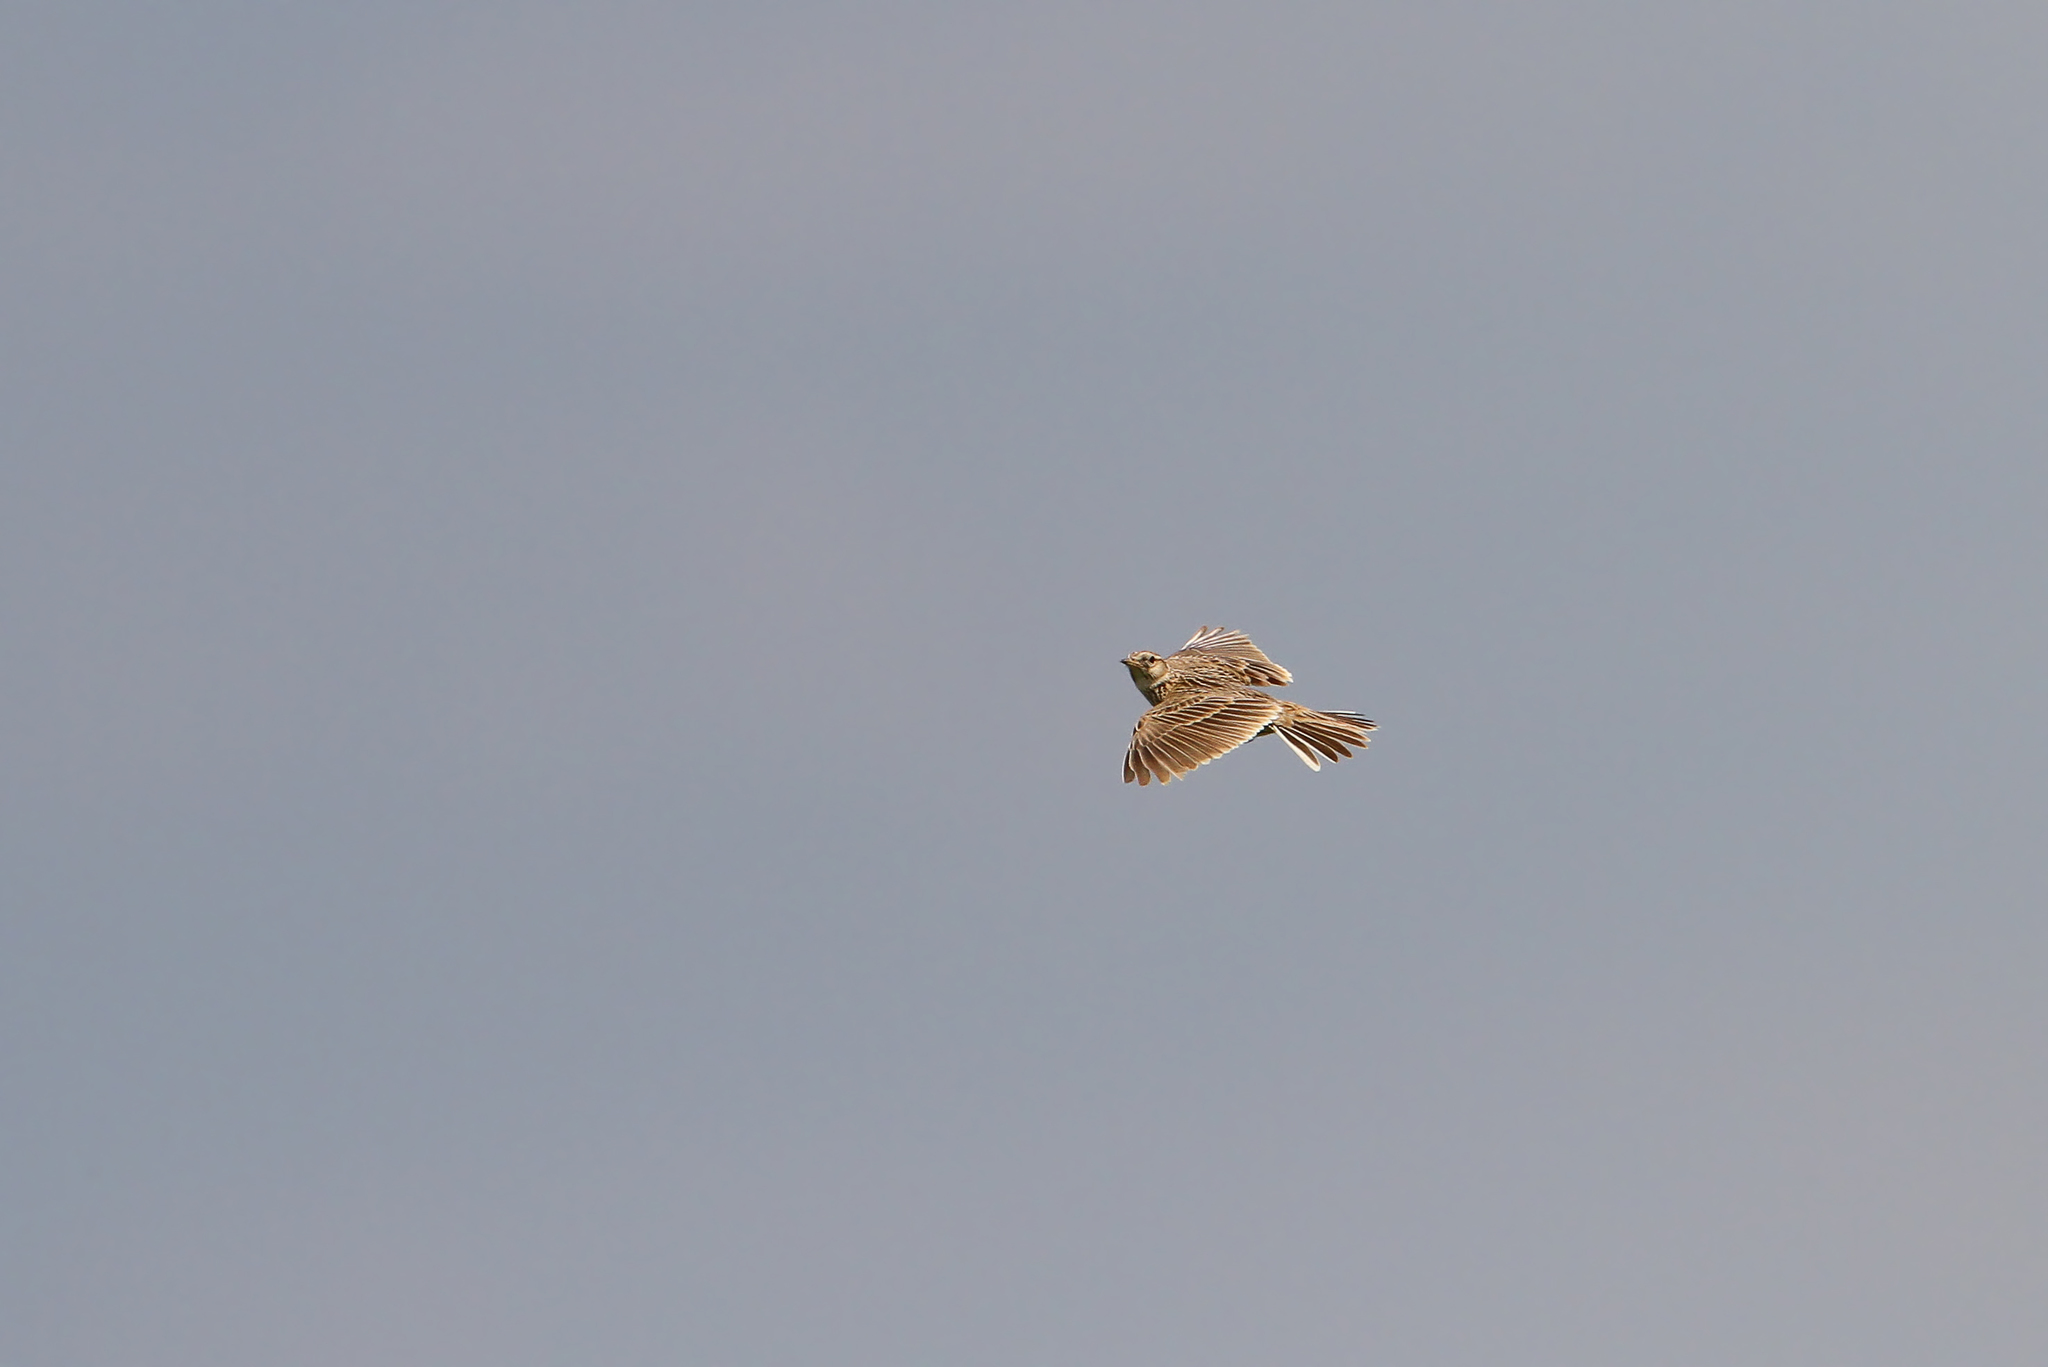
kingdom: Animalia
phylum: Chordata
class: Aves
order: Passeriformes
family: Alaudidae
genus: Alauda
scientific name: Alauda arvensis
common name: Eurasian skylark
